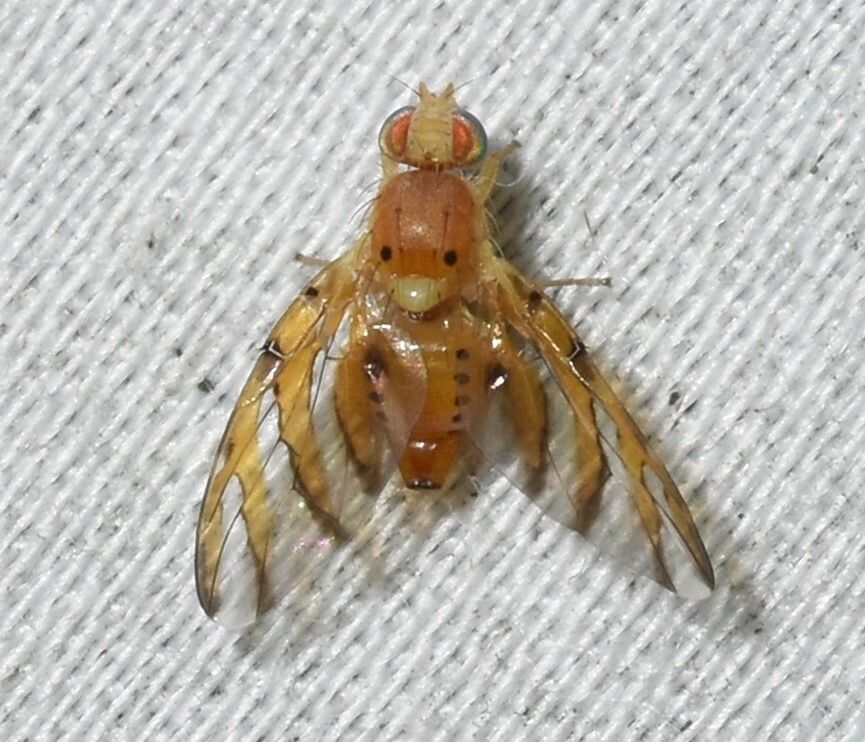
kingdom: Animalia
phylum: Arthropoda
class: Insecta
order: Diptera
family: Tephritidae
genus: Tomoplagia
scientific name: Tomoplagia obliqua
